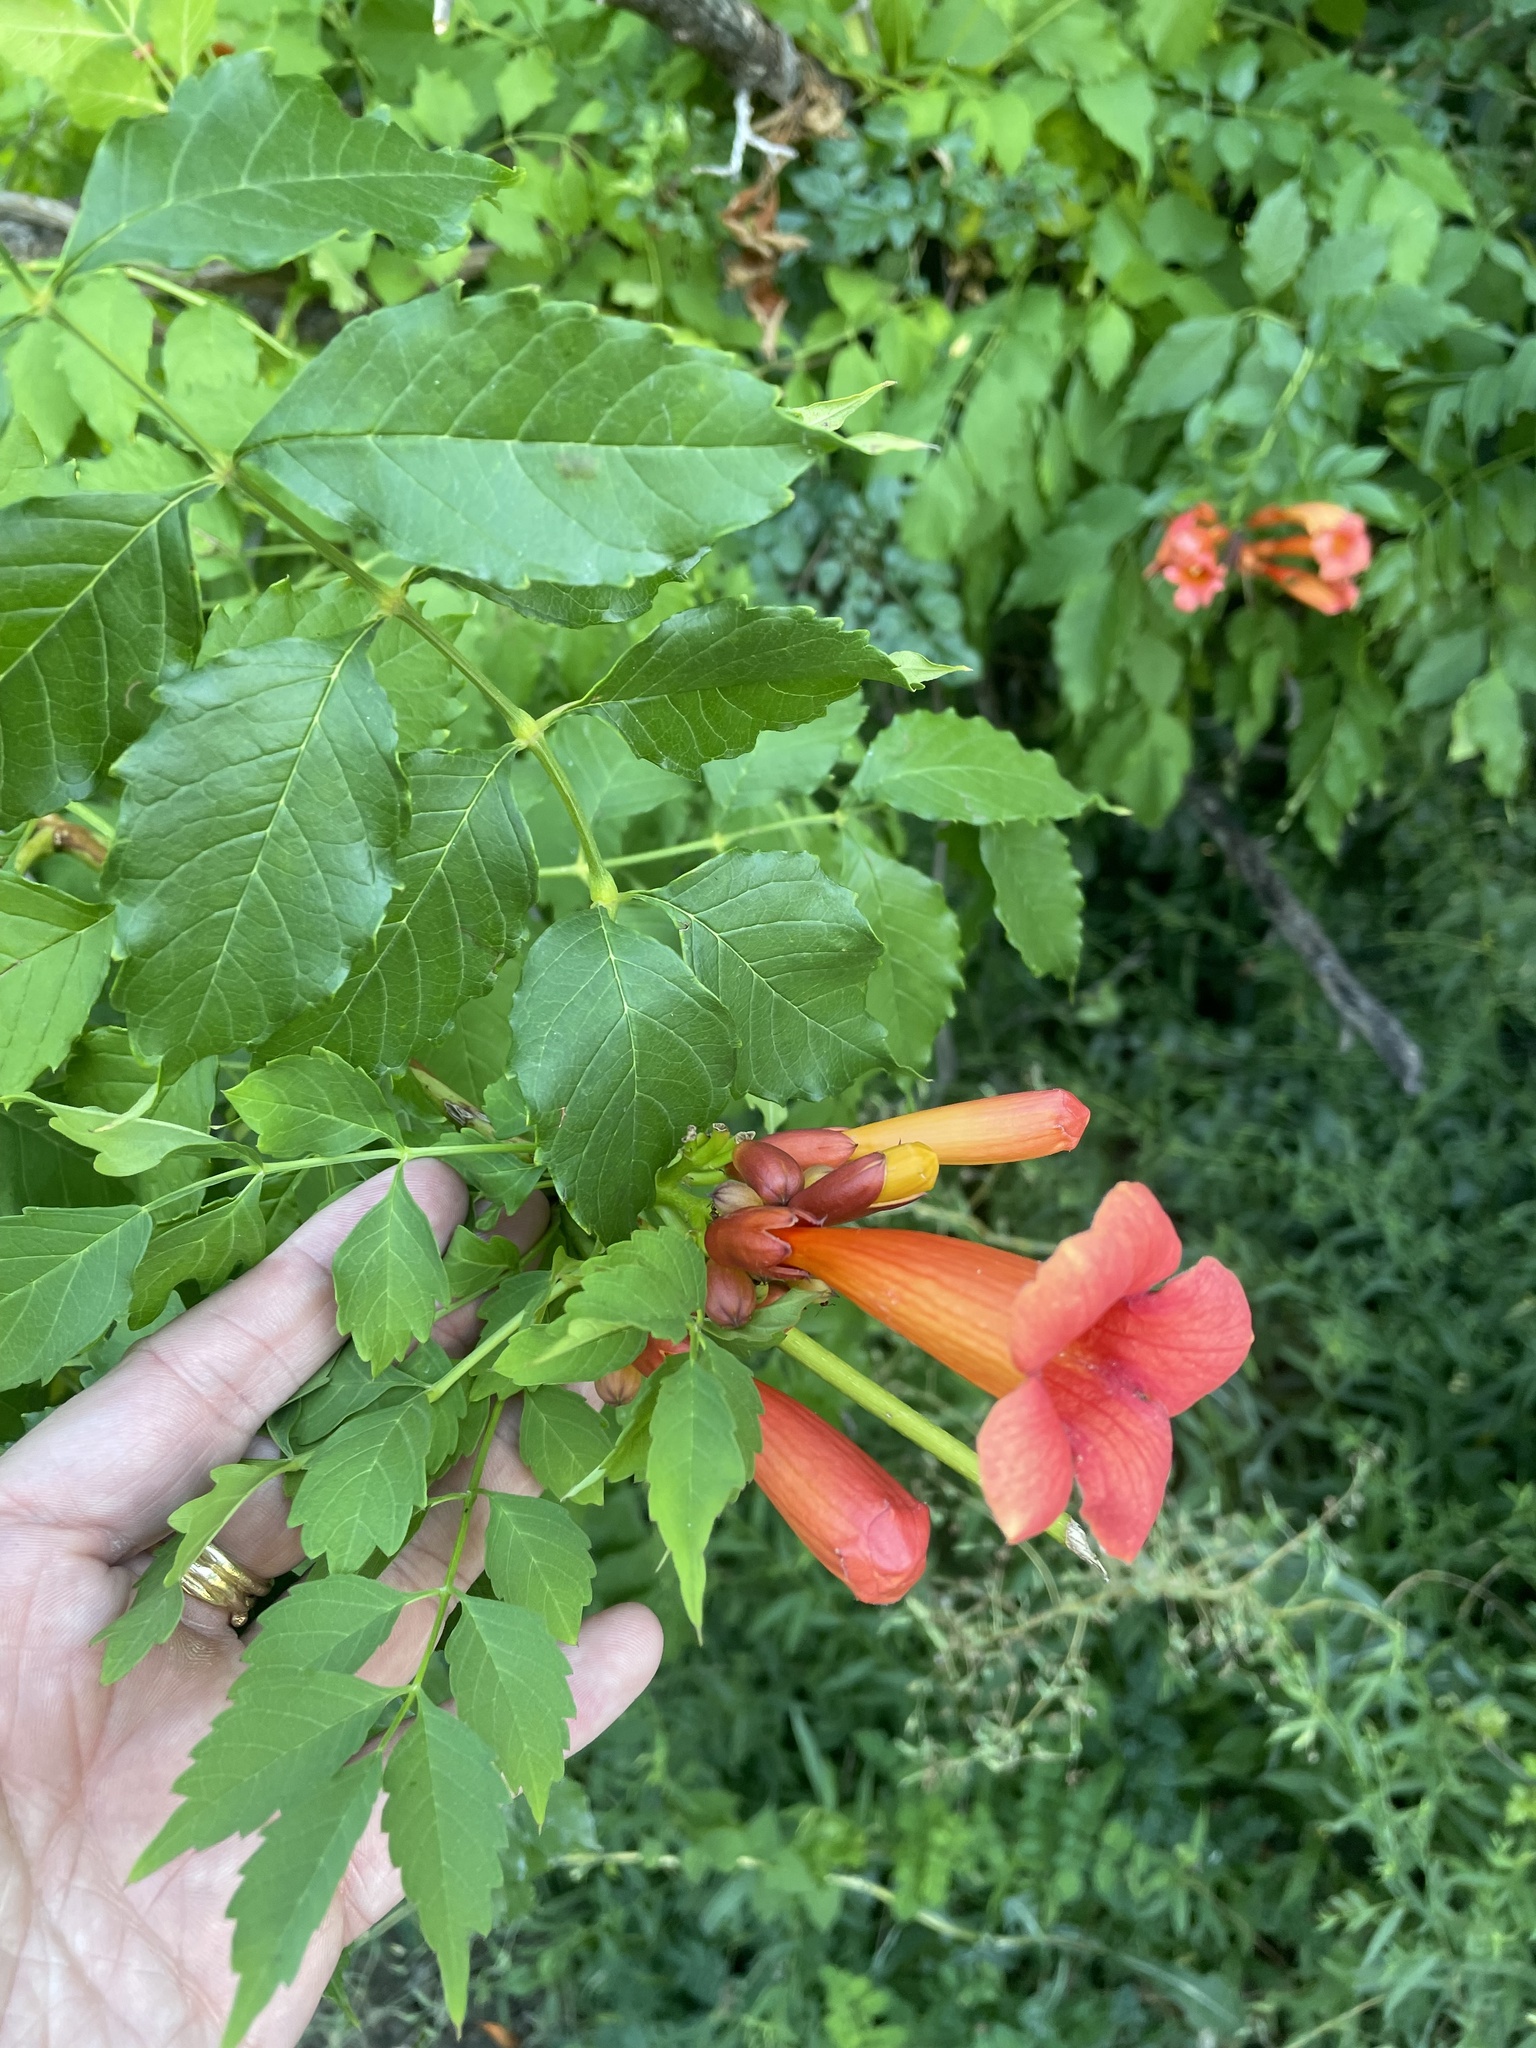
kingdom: Plantae
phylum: Tracheophyta
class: Magnoliopsida
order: Lamiales
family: Bignoniaceae
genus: Campsis
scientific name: Campsis radicans
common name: Trumpet-creeper
